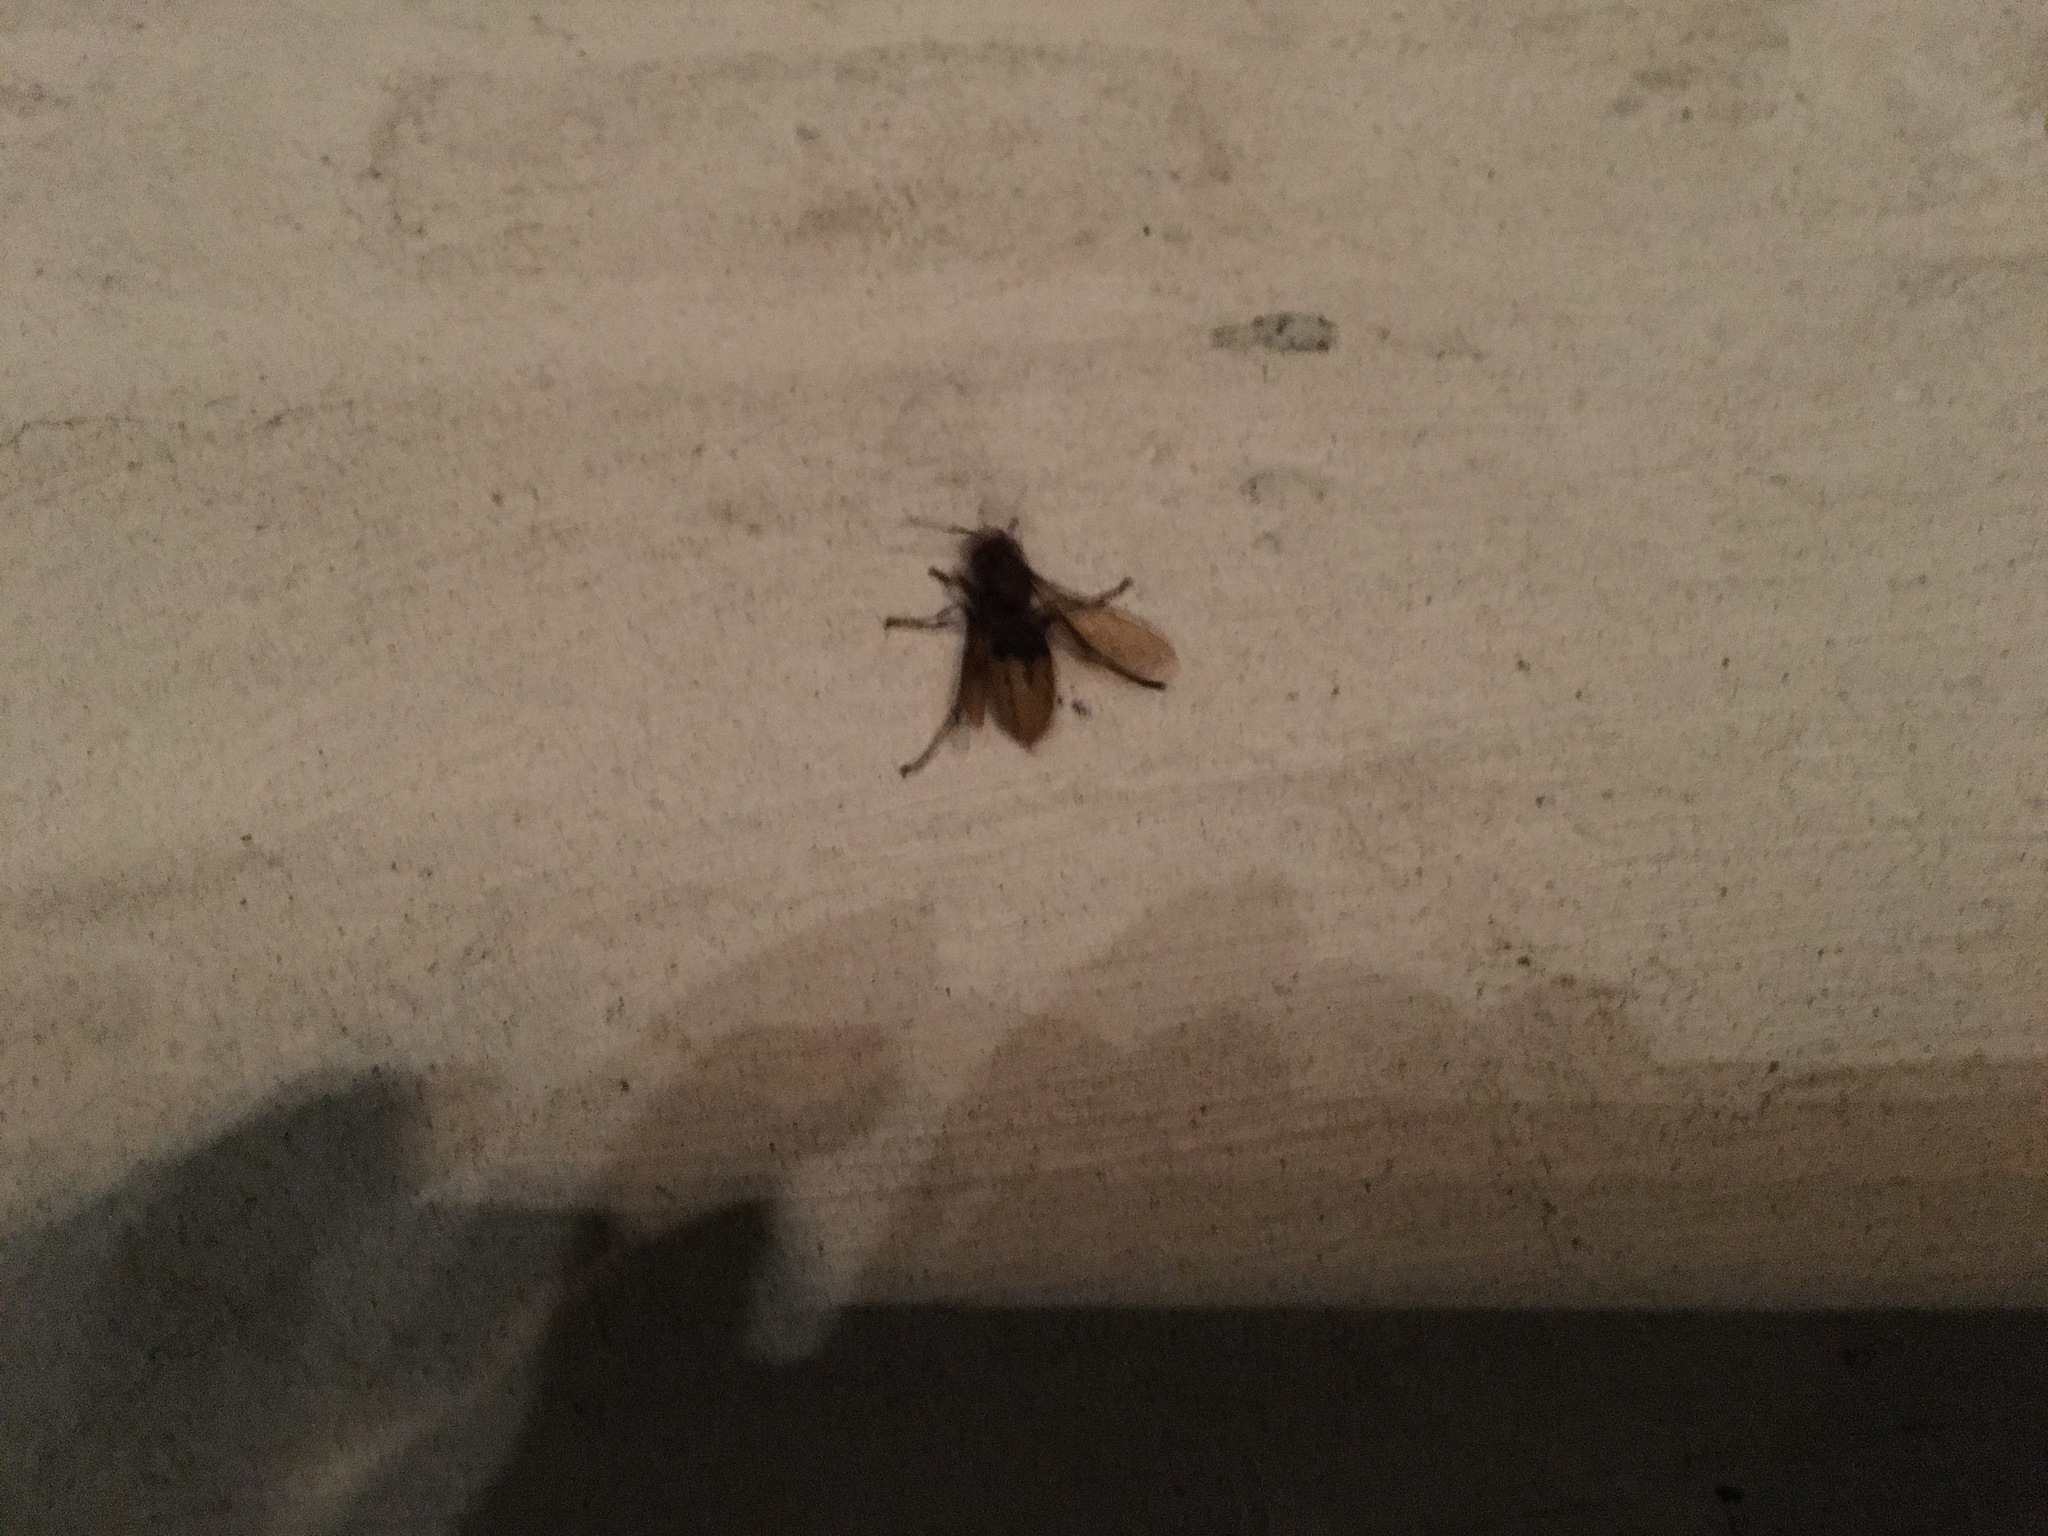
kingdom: Animalia
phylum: Arthropoda
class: Insecta
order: Hymenoptera
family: Vespidae
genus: Vespa
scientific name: Vespa crabro
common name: Hornet
